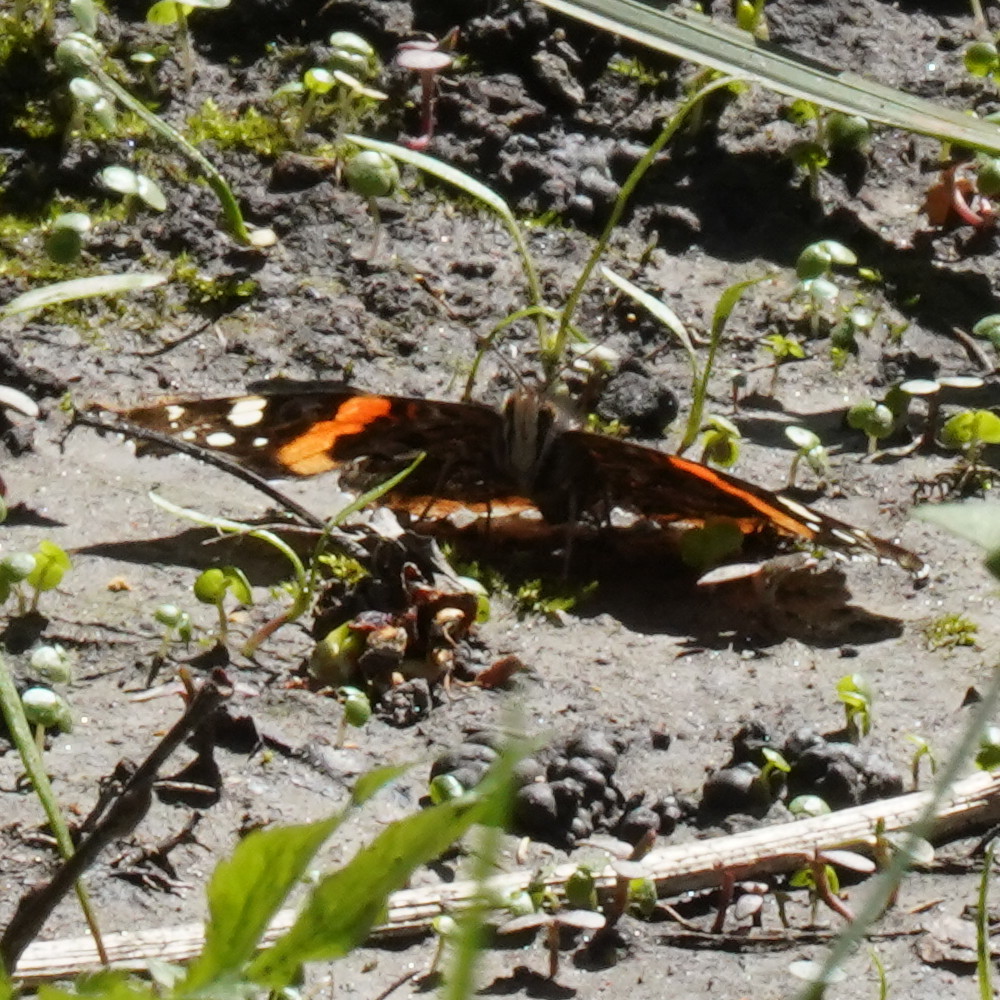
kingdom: Animalia
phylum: Arthropoda
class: Insecta
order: Lepidoptera
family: Nymphalidae
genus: Vanessa
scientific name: Vanessa atalanta
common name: Red admiral
